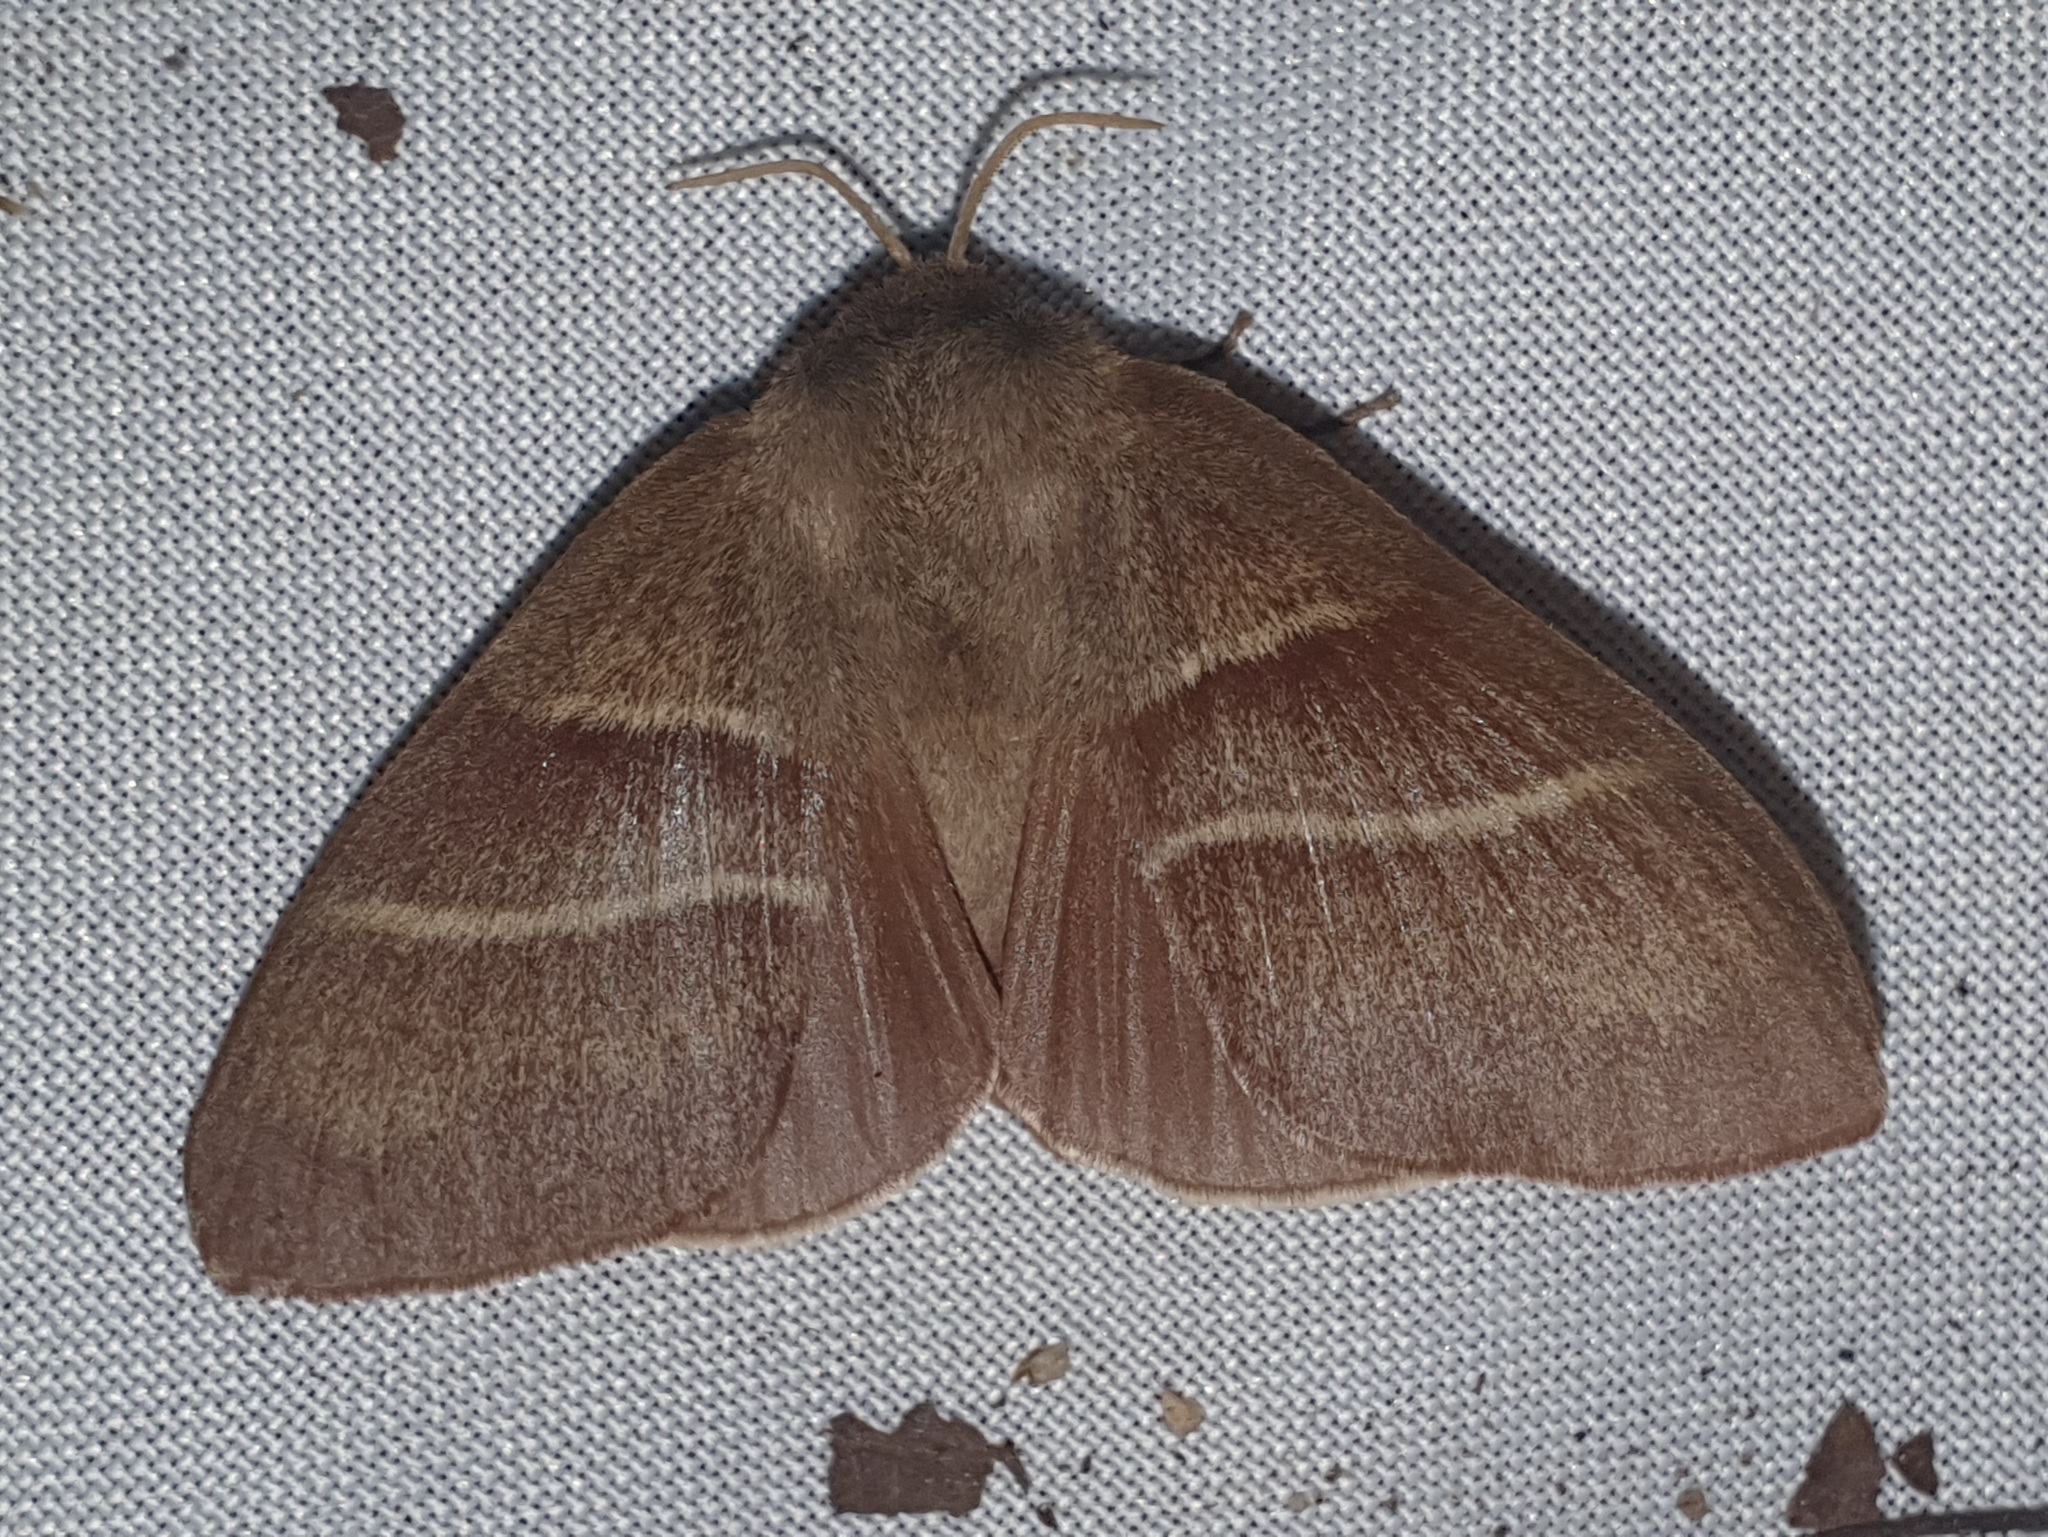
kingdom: Animalia
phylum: Arthropoda
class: Insecta
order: Lepidoptera
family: Lasiocampidae
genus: Macrothylacia
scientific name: Macrothylacia rubi
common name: Fox moth
